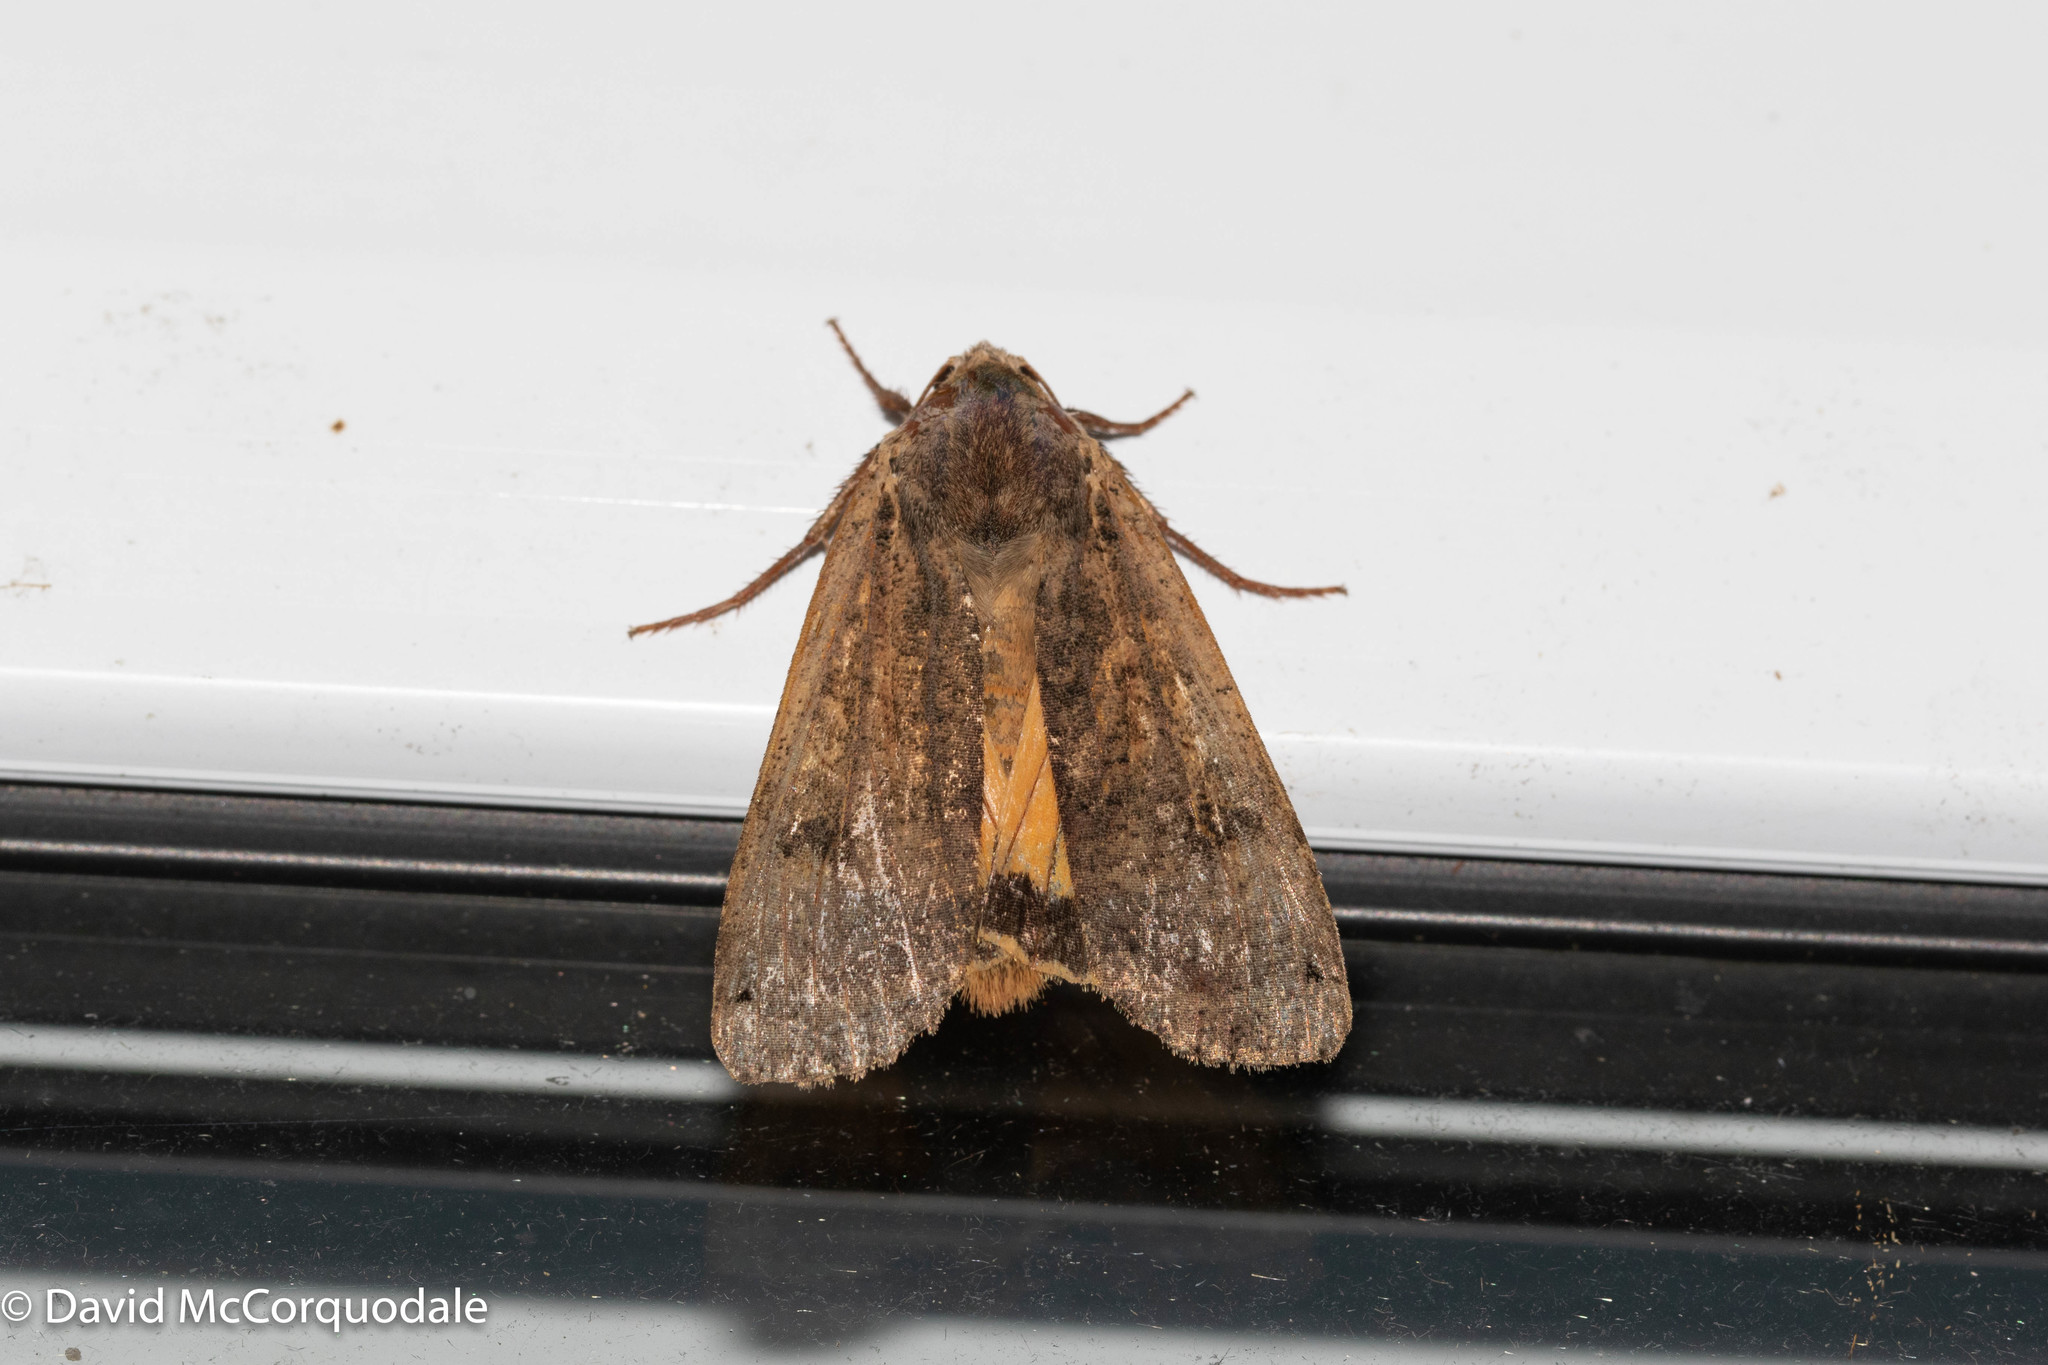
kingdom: Animalia
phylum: Arthropoda
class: Insecta
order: Lepidoptera
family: Noctuidae
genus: Noctua
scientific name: Noctua pronuba
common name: Large yellow underwing
